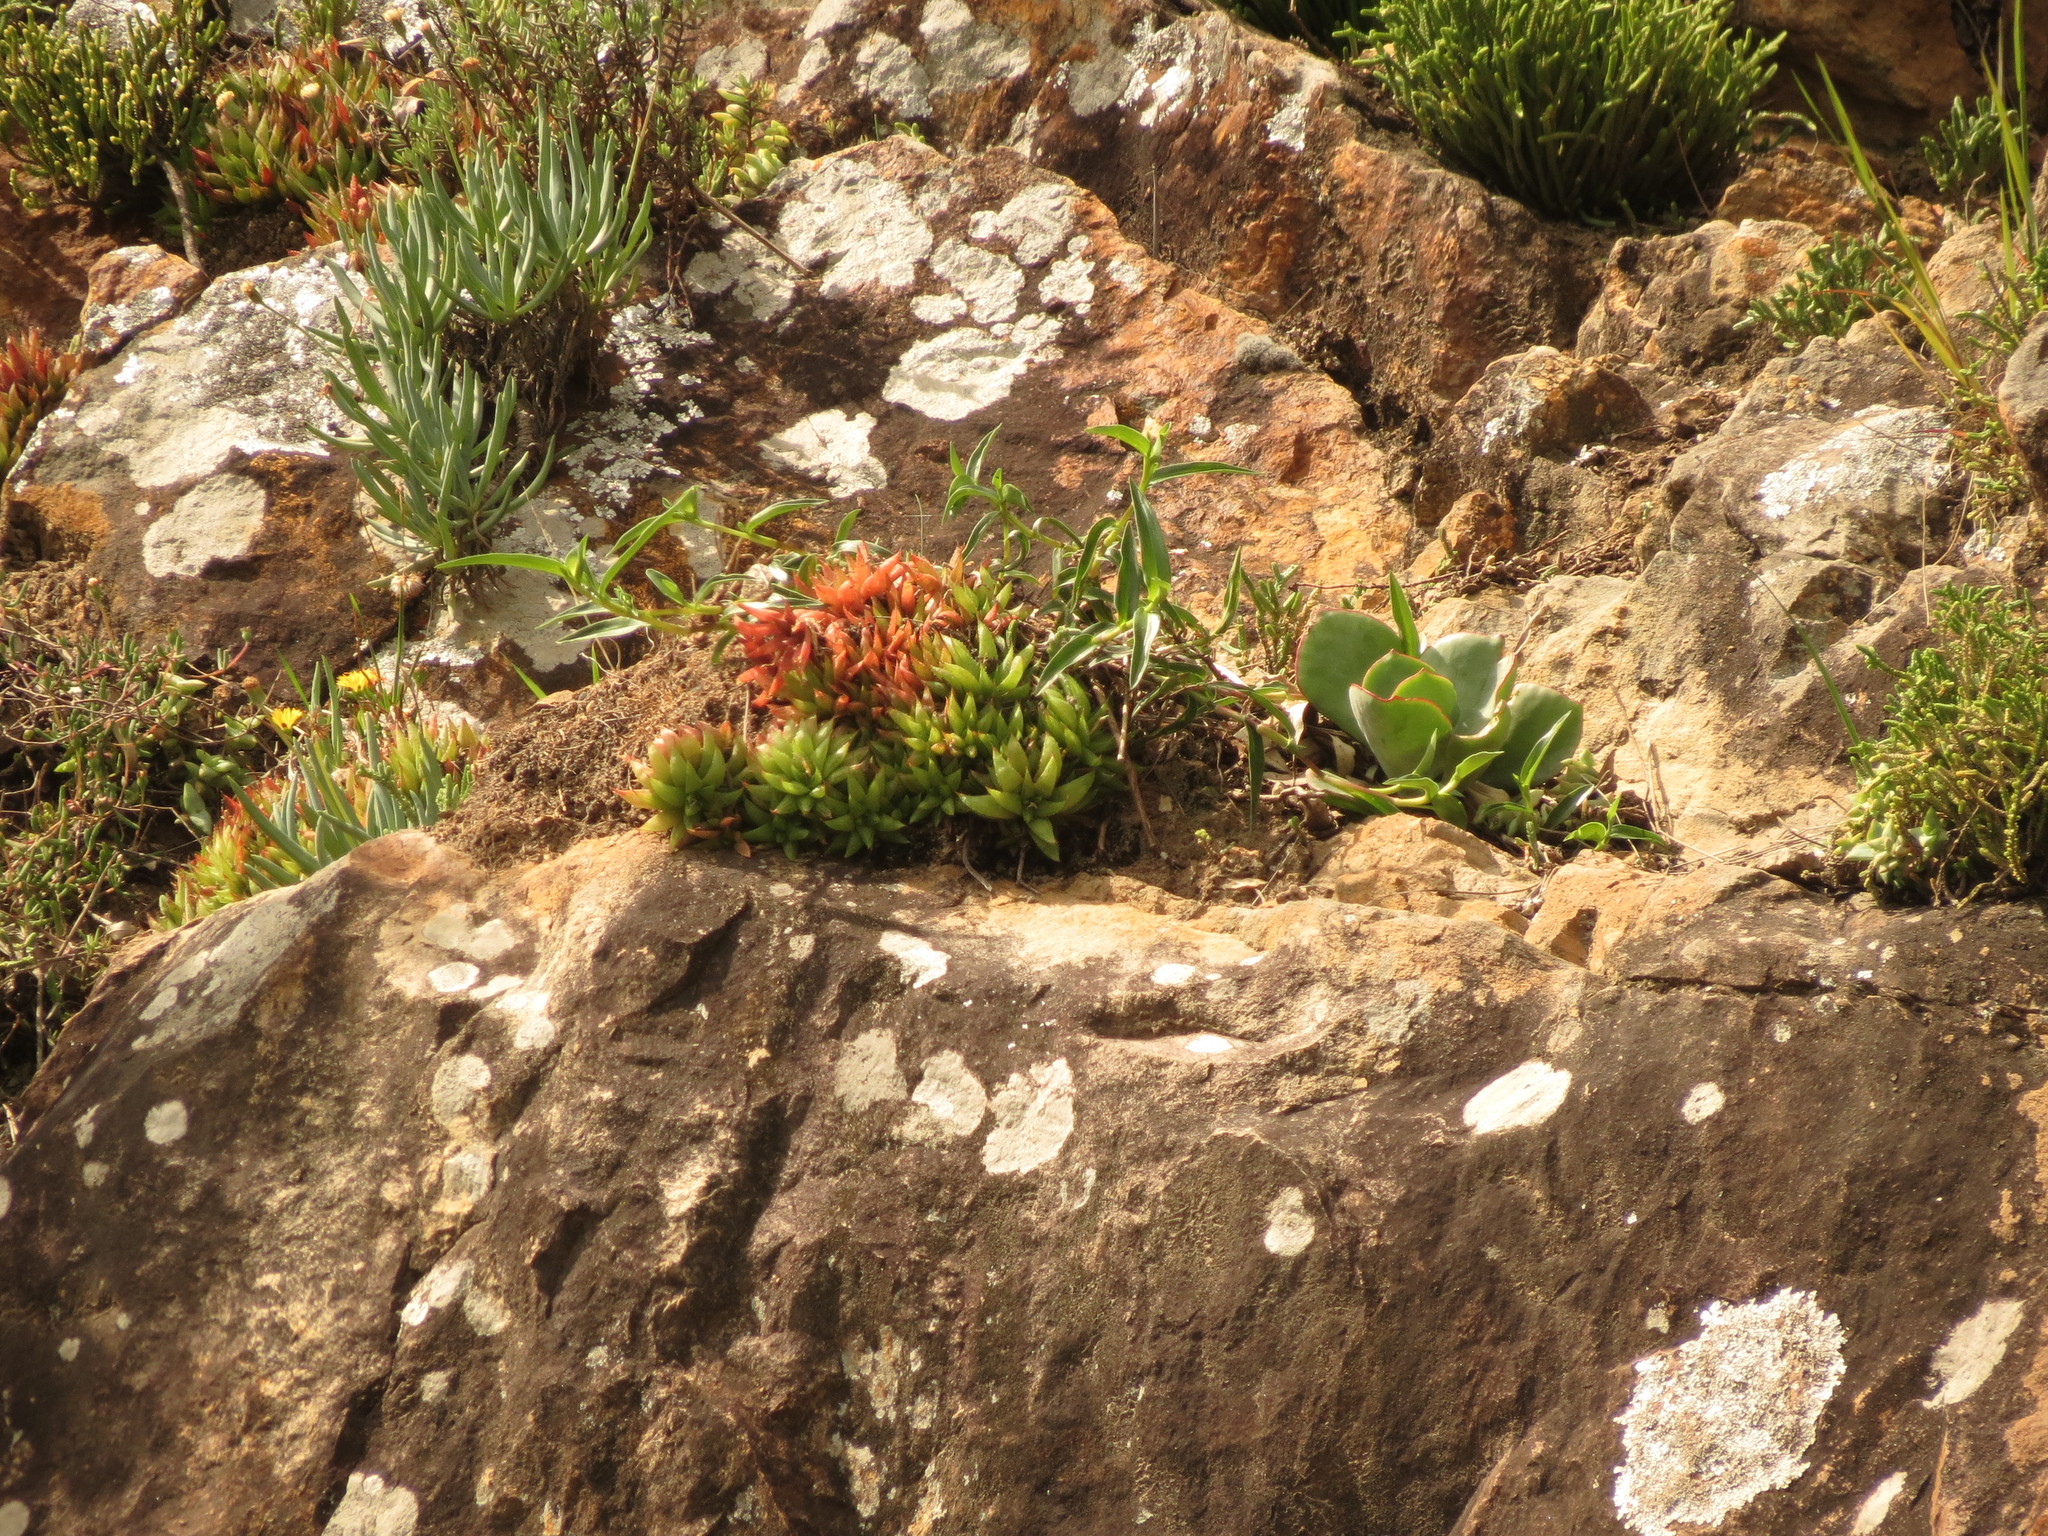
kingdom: Plantae
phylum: Tracheophyta
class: Liliopsida
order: Asparagales
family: Asphodelaceae
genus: Haworthia
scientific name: Haworthia turgida
